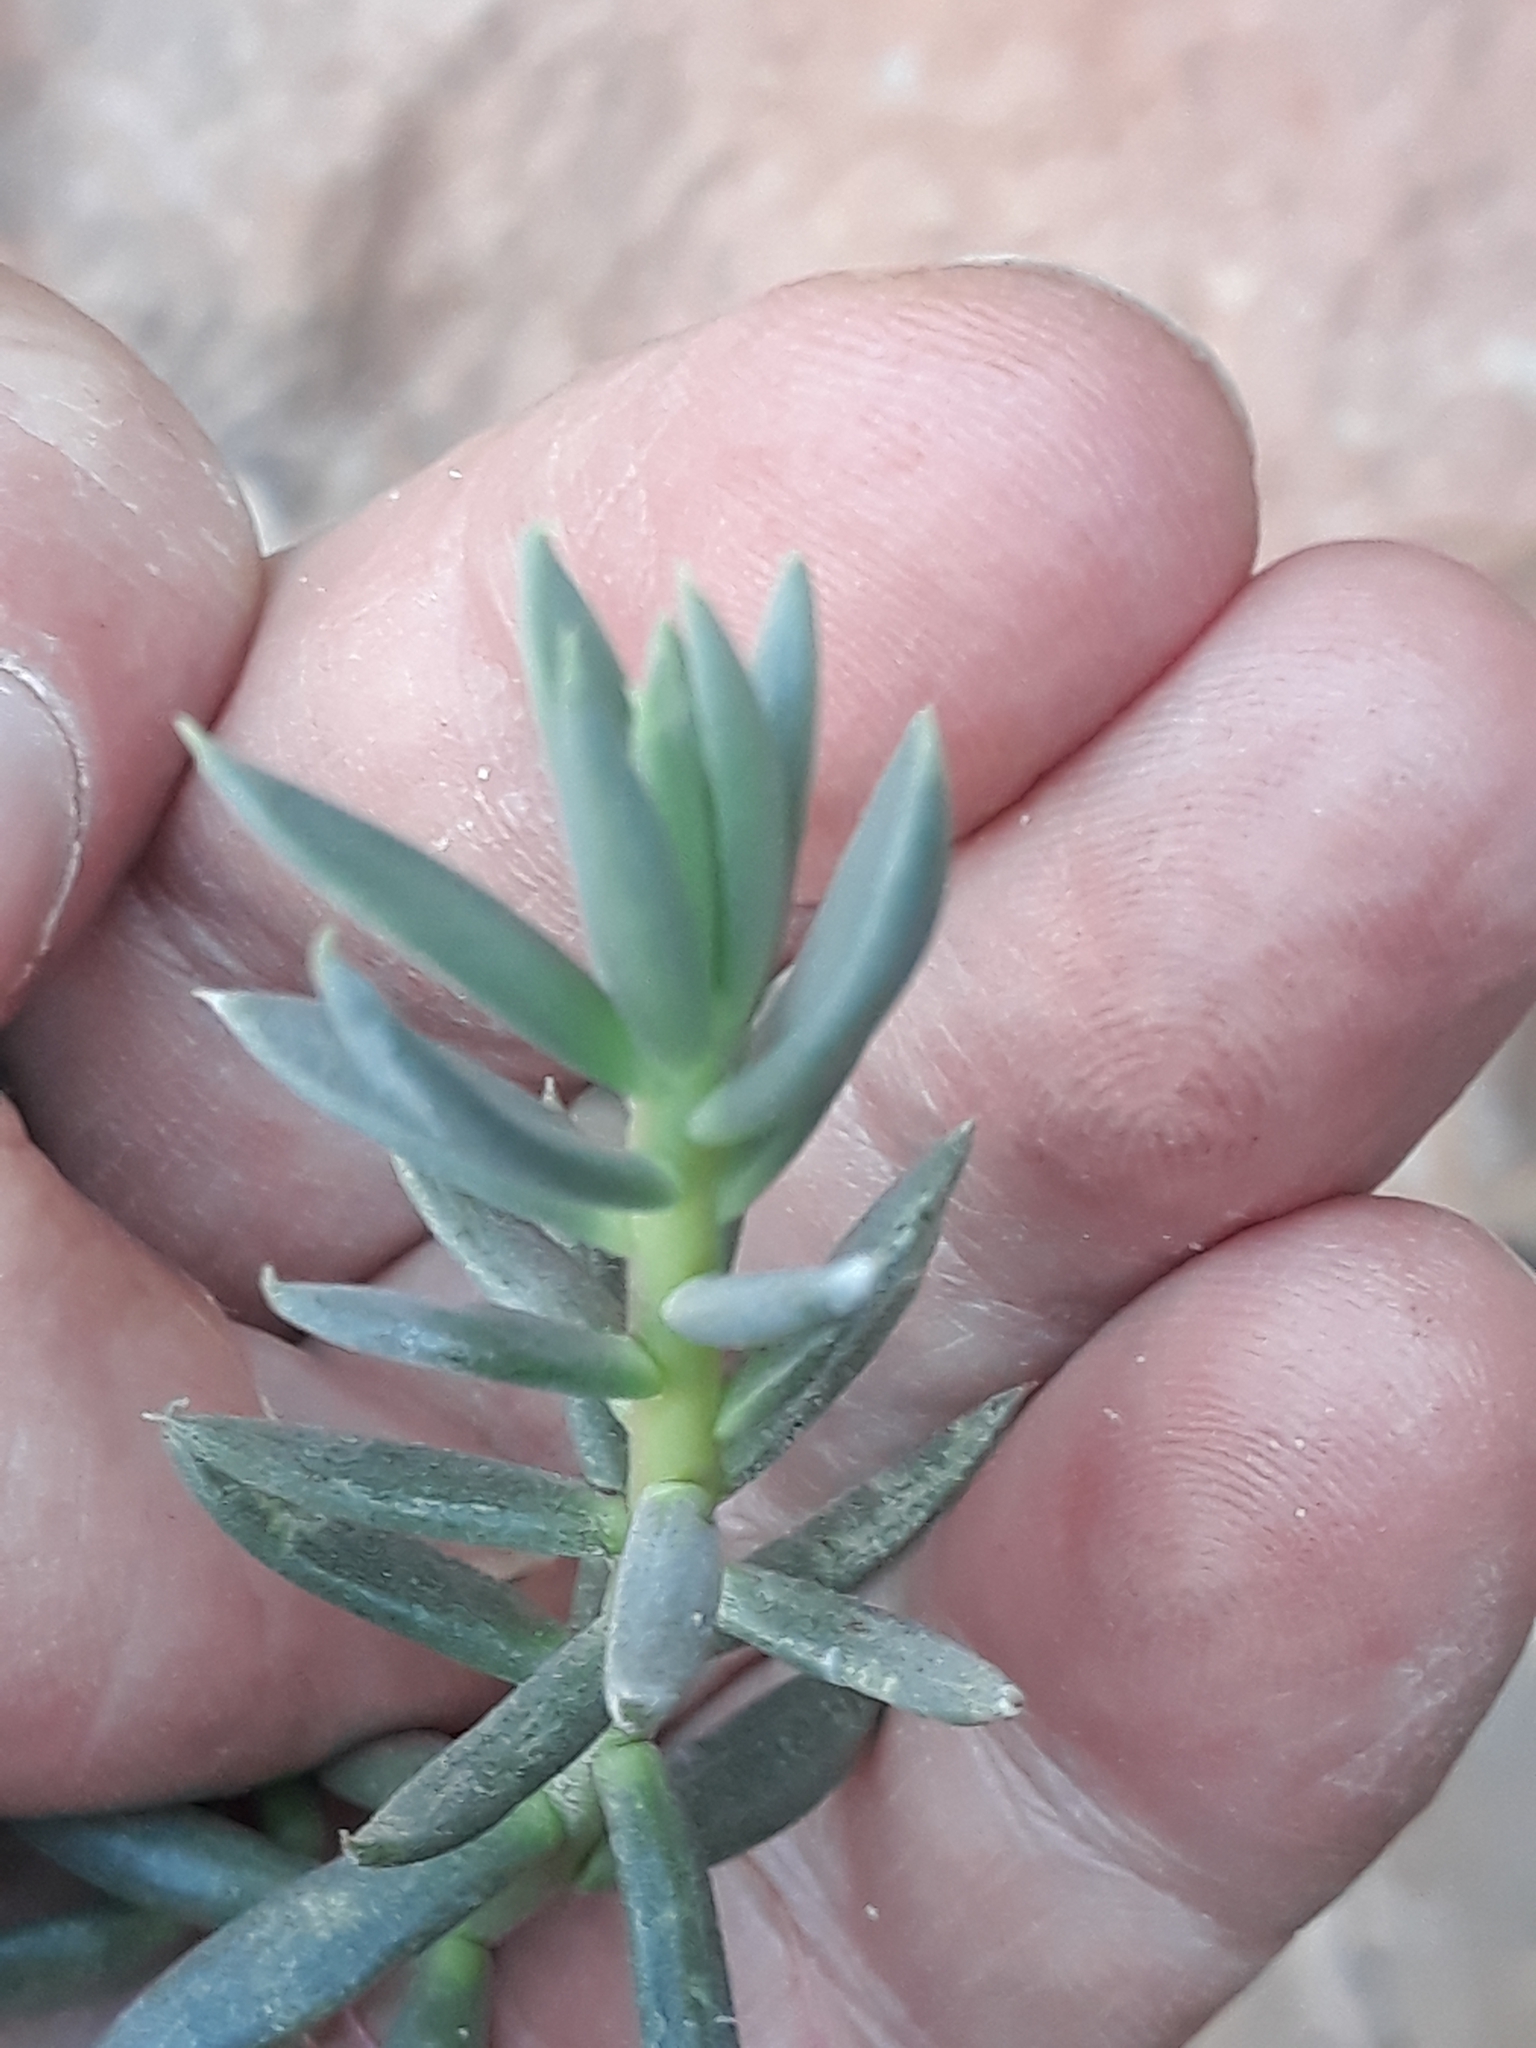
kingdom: Plantae
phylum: Tracheophyta
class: Magnoliopsida
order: Saxifragales
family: Crassulaceae
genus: Petrosedum
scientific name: Petrosedum sediforme
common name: Pale stonecrop
